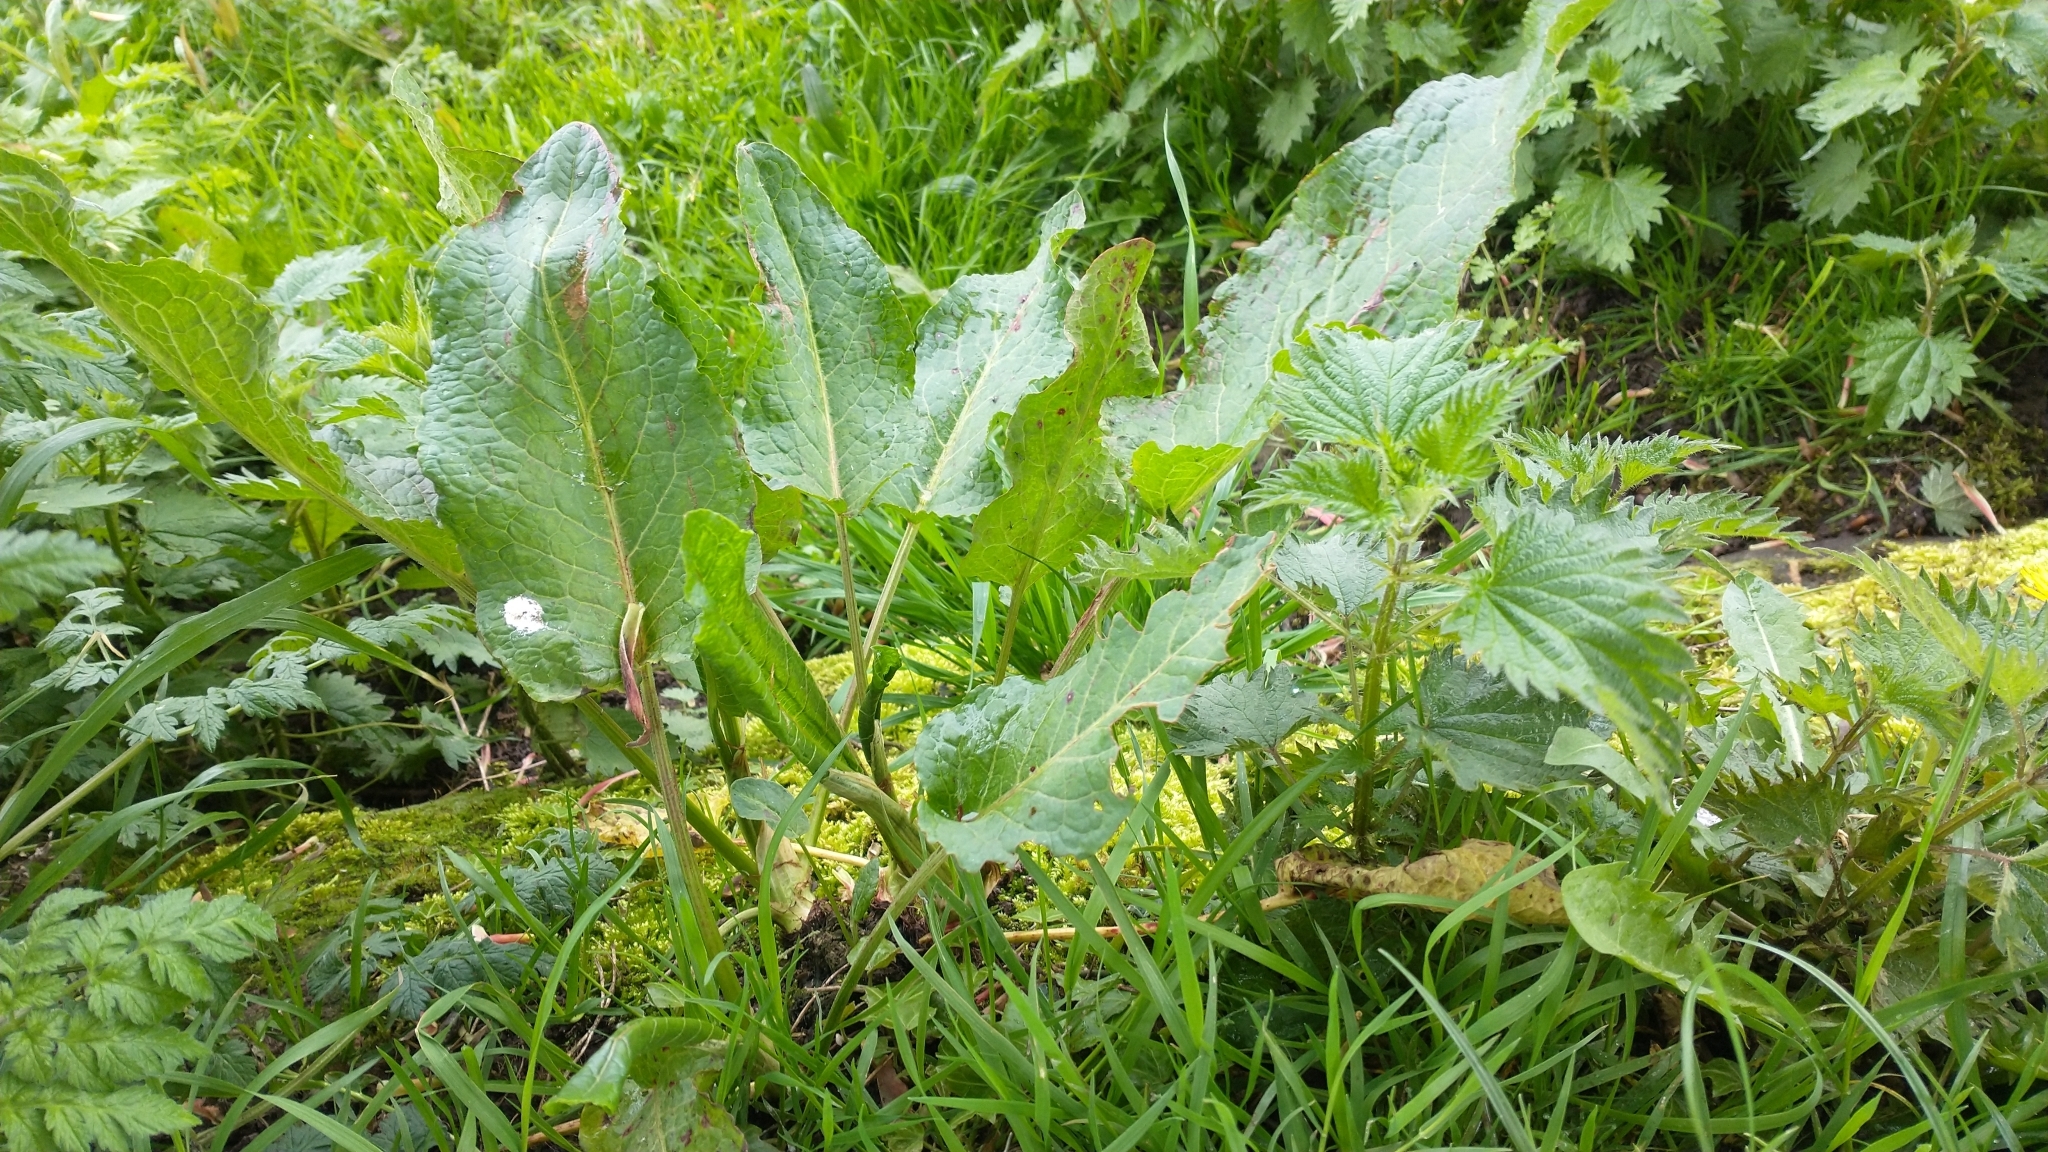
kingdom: Plantae
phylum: Tracheophyta
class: Magnoliopsida
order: Caryophyllales
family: Polygonaceae
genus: Rumex
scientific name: Rumex obtusifolius
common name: Bitter dock
